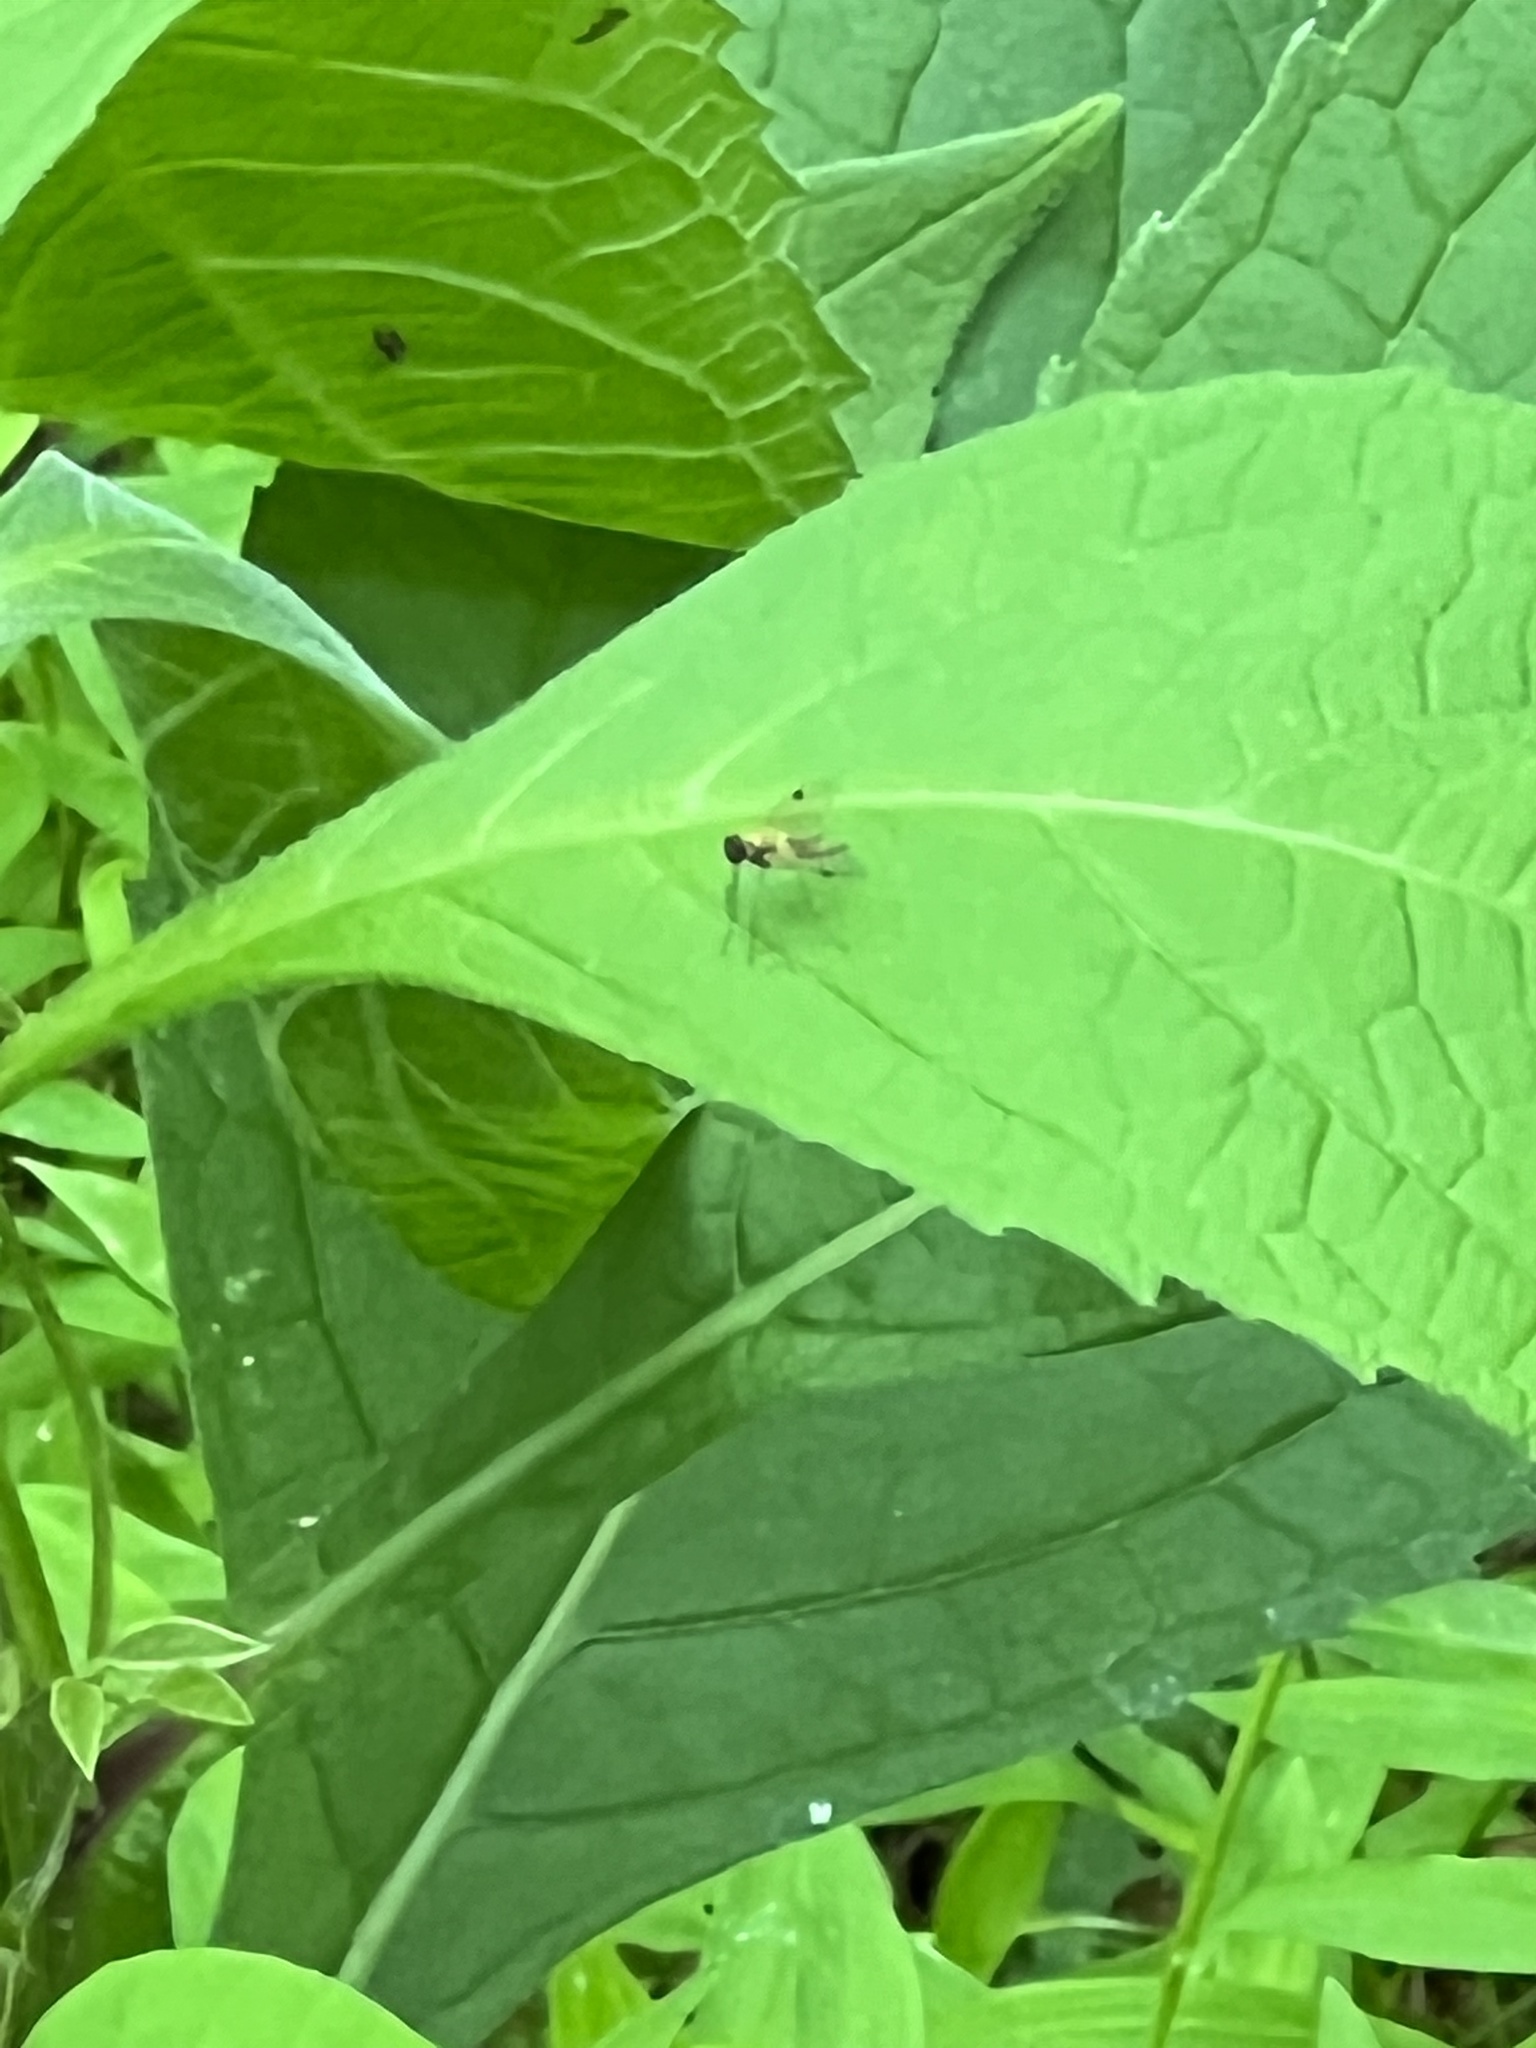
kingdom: Animalia
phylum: Arthropoda
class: Insecta
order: Diptera
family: Rhagionidae
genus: Chrysopilus
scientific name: Chrysopilus modestus
